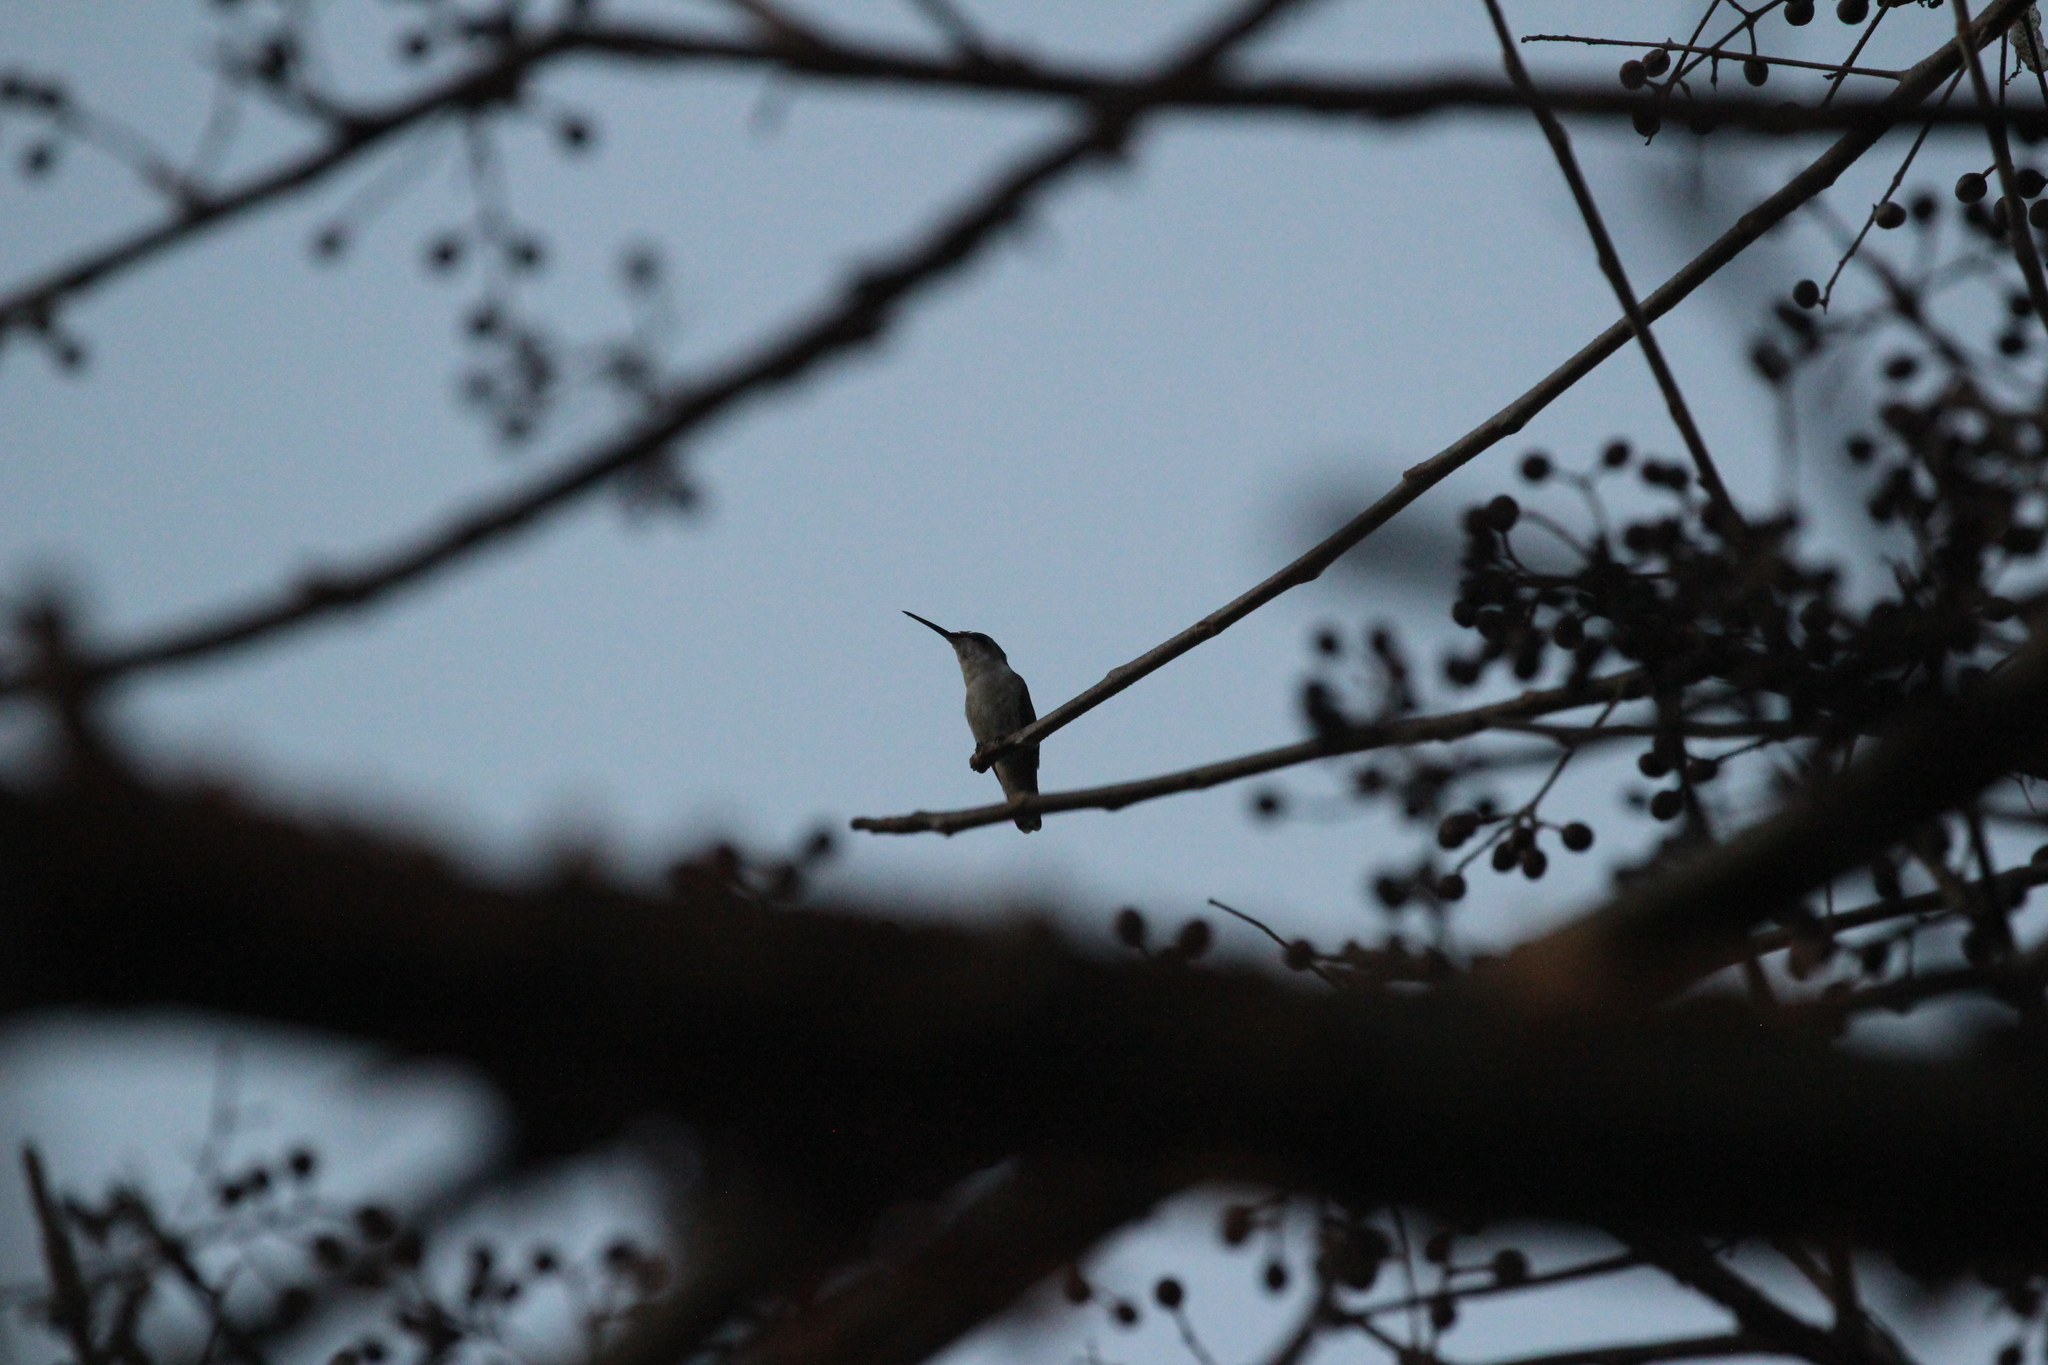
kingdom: Animalia
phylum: Chordata
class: Aves
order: Apodiformes
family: Trochilidae
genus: Archilochus
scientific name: Archilochus colubris
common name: Ruby-throated hummingbird
